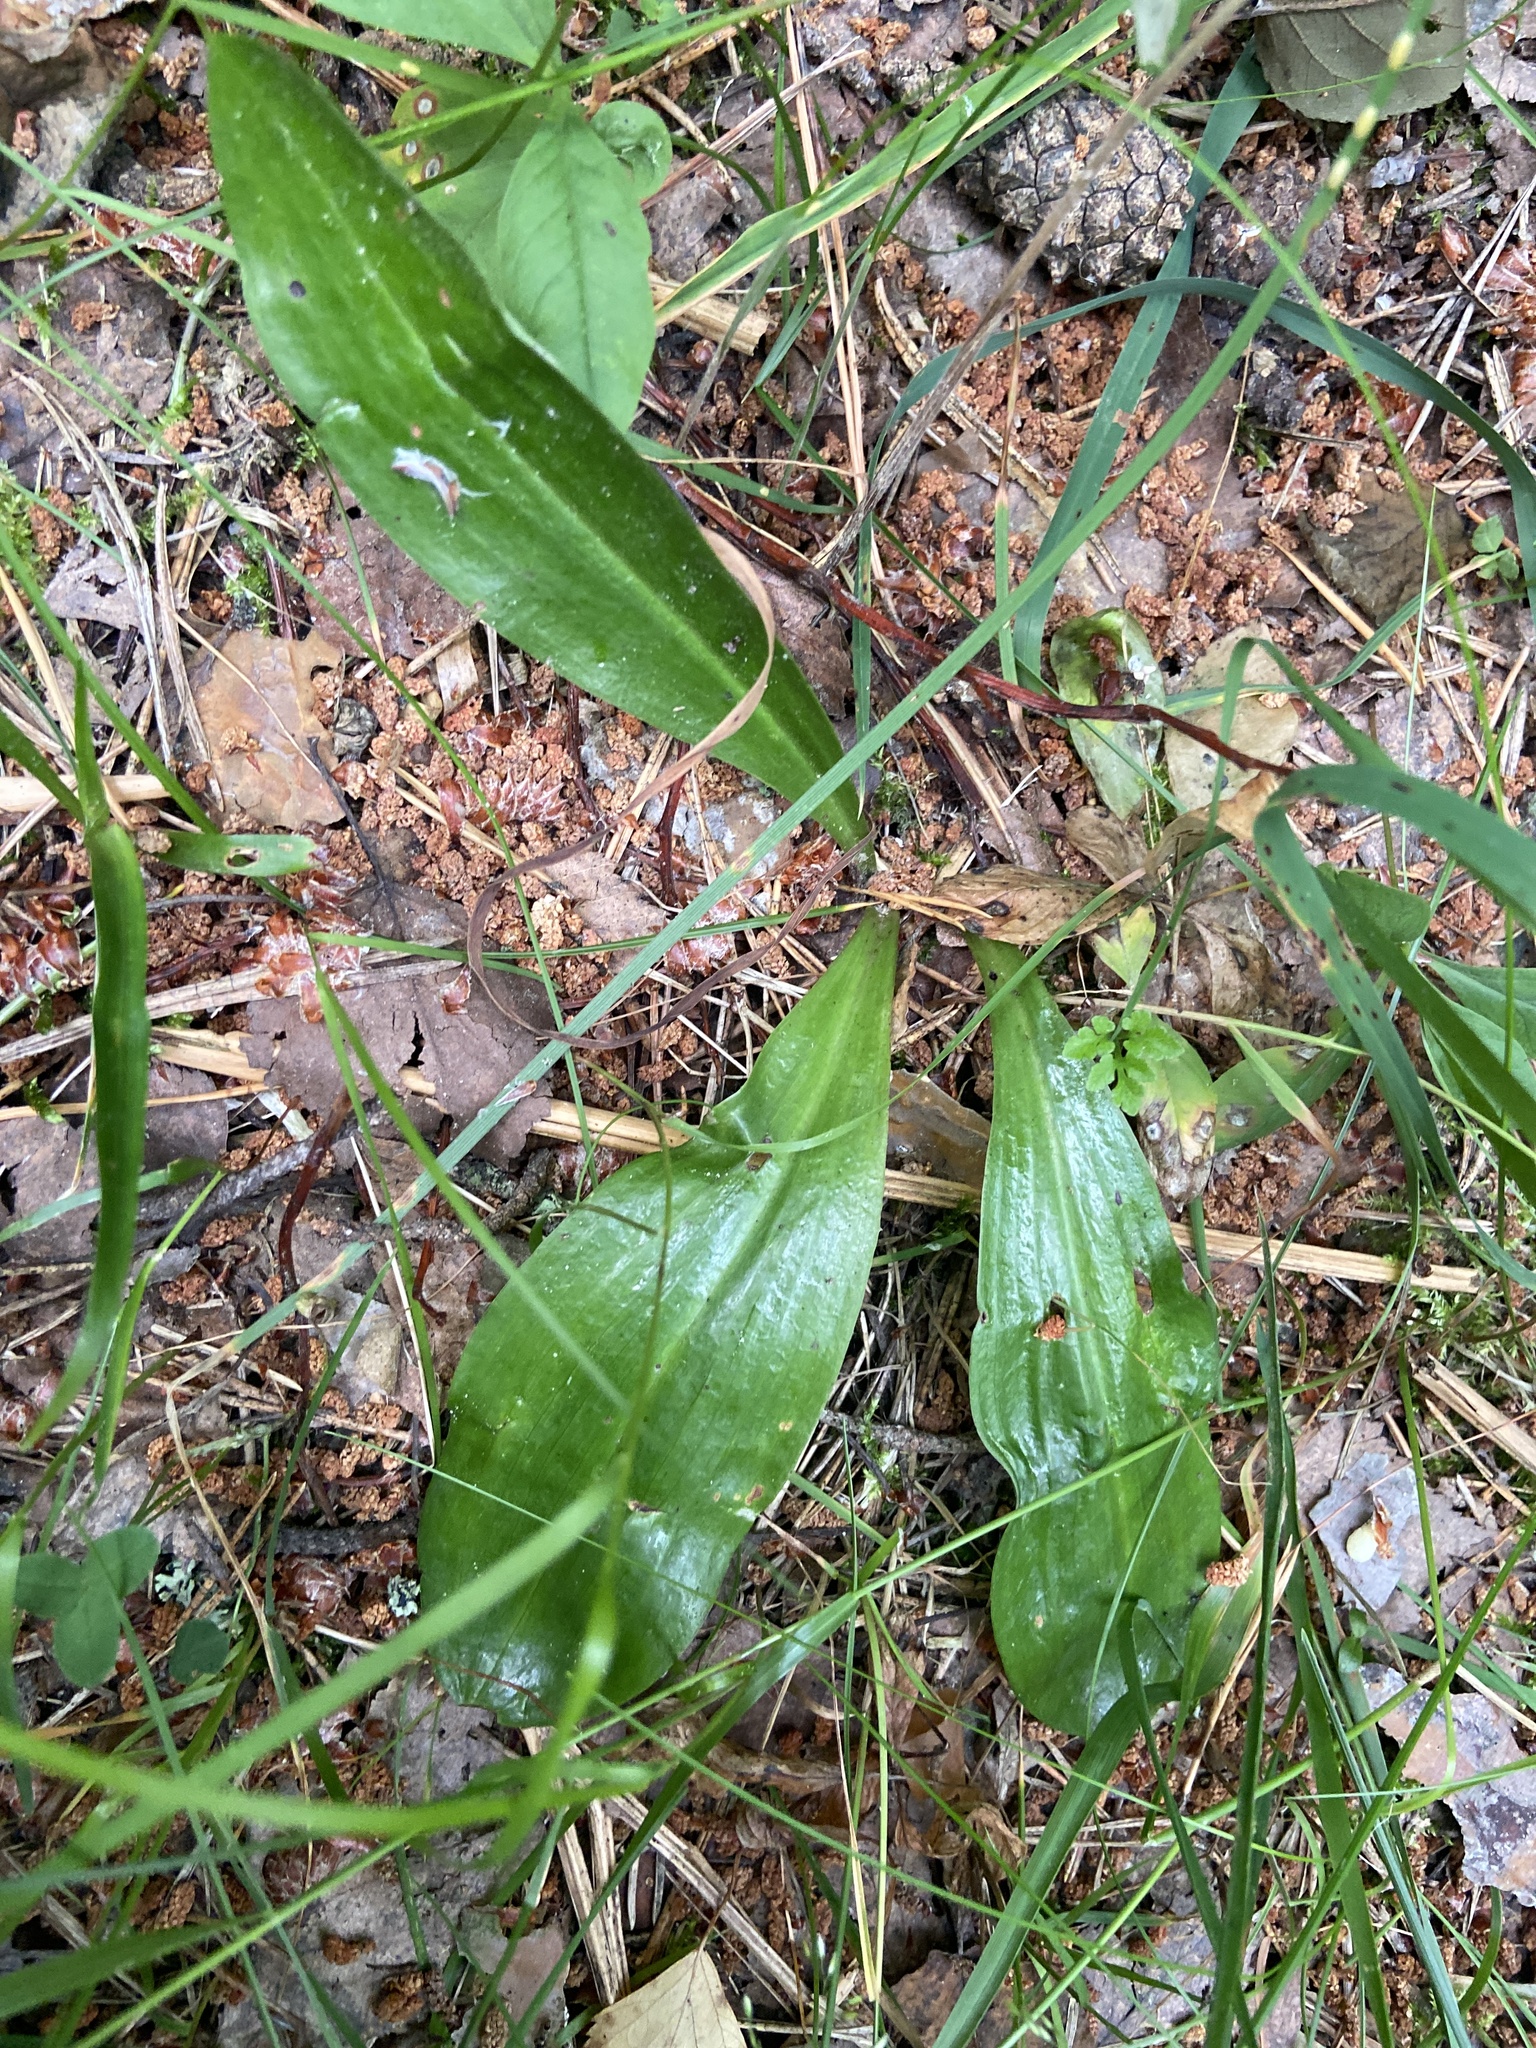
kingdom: Plantae
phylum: Tracheophyta
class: Liliopsida
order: Asparagales
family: Orchidaceae
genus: Platanthera
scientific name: Platanthera bifolia
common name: Lesser butterfly-orchid
